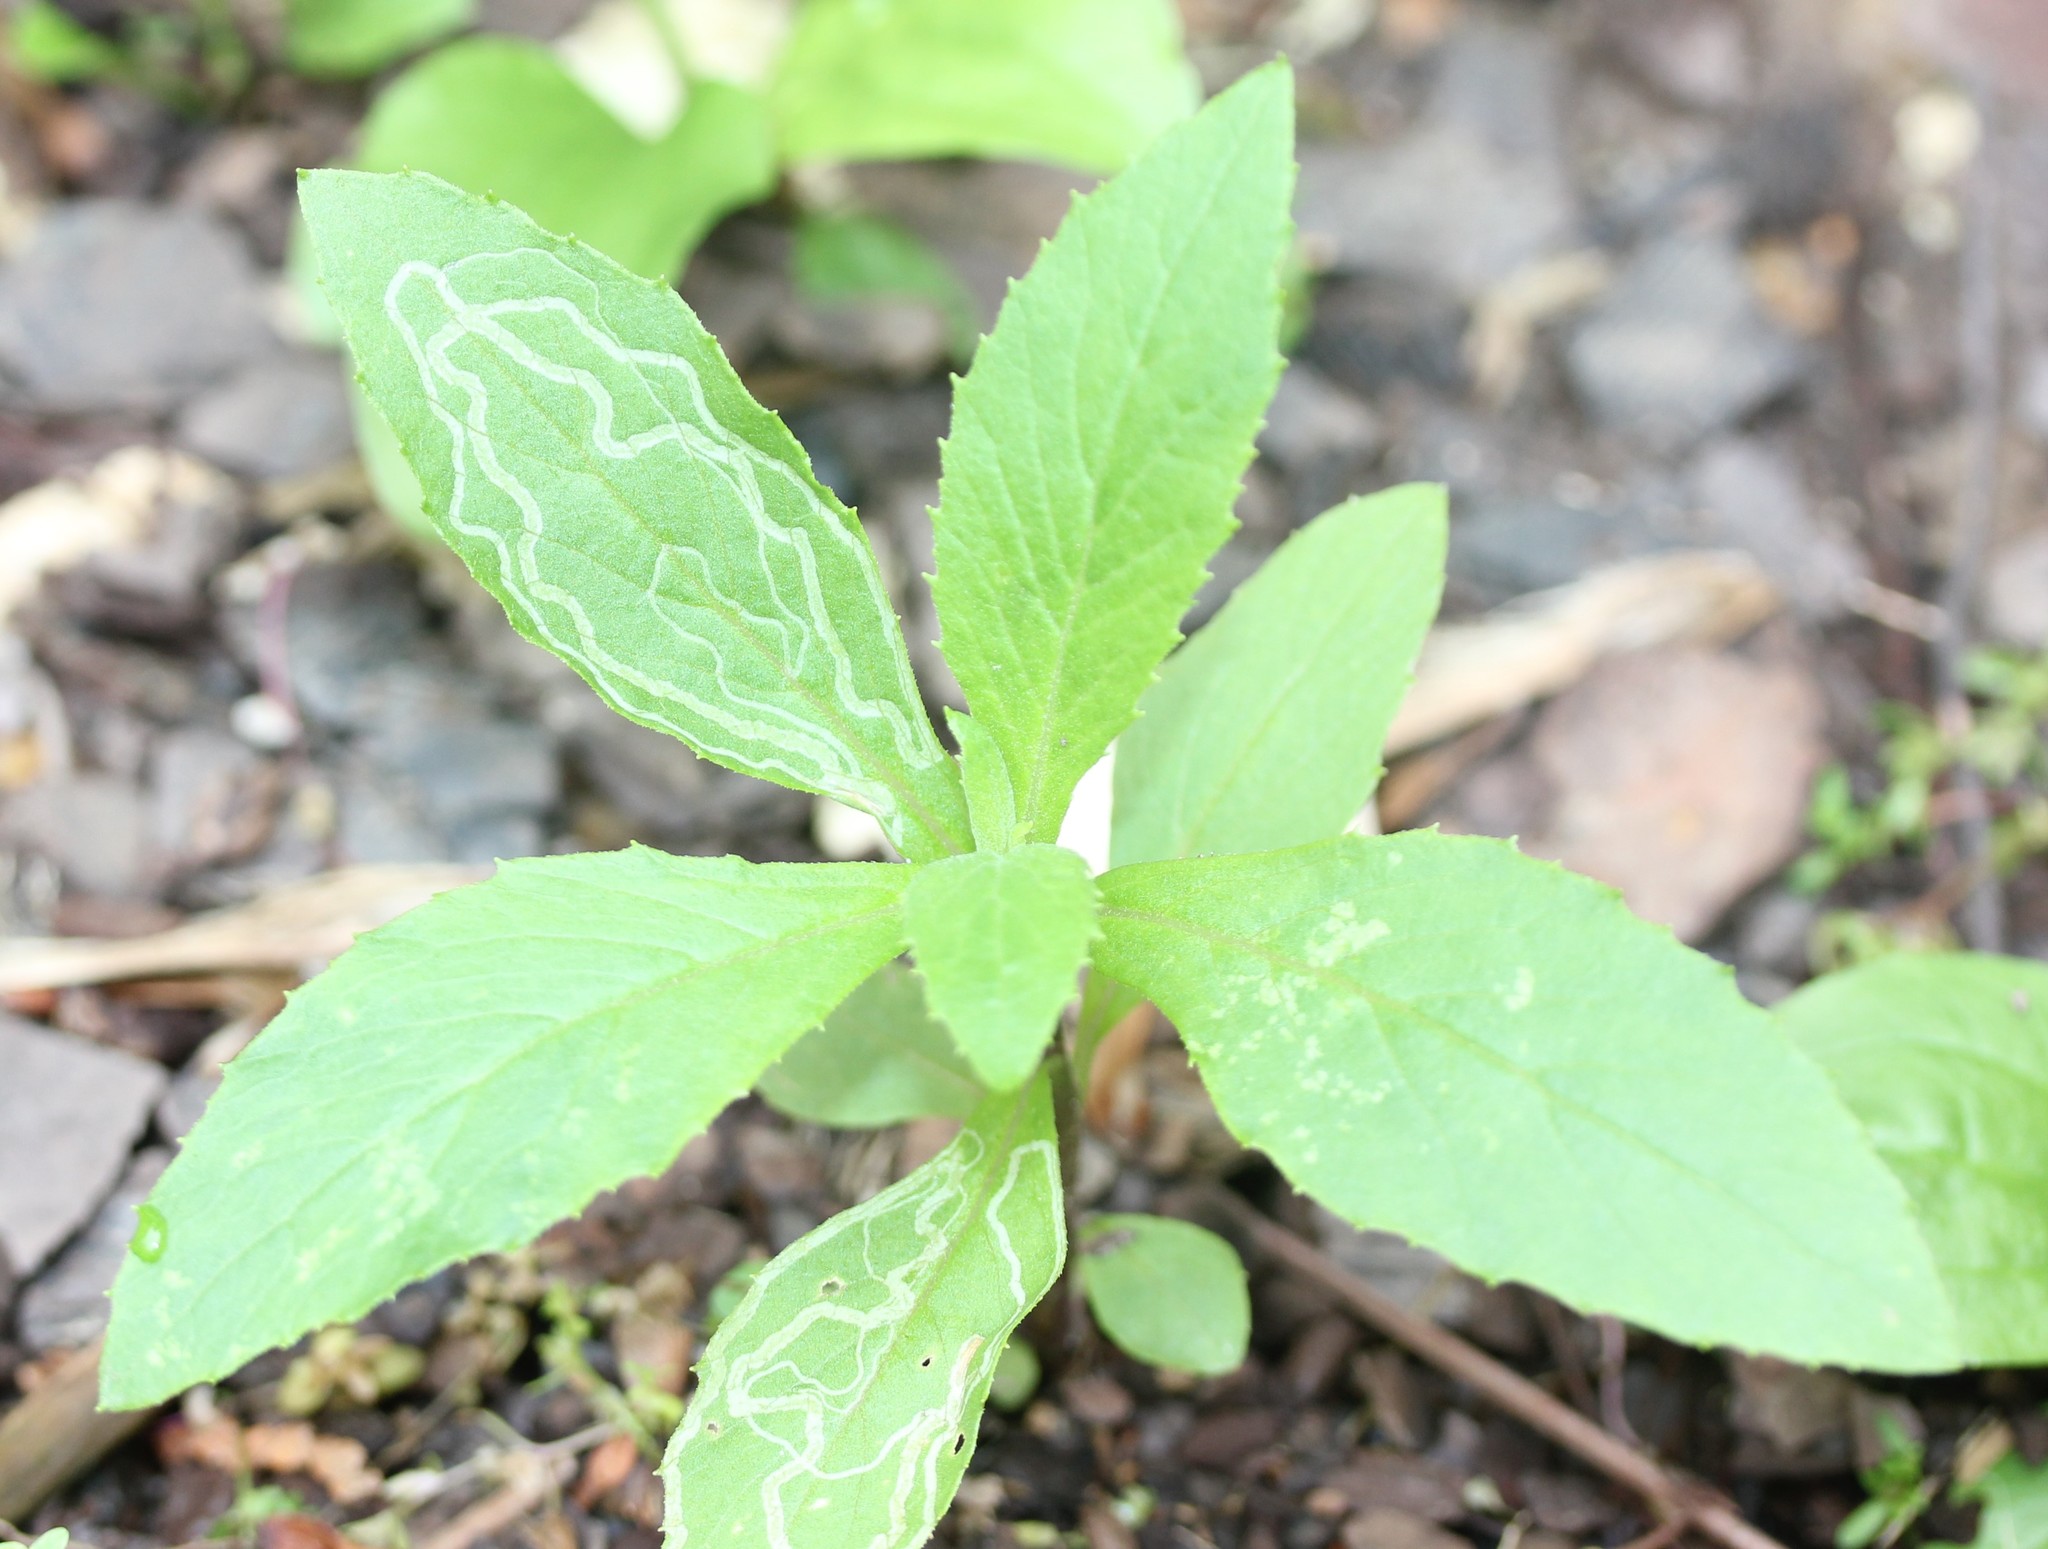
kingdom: Animalia
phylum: Arthropoda
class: Insecta
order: Lepidoptera
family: Gracillariidae
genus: Phyllocnistis
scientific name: Phyllocnistis insignis
